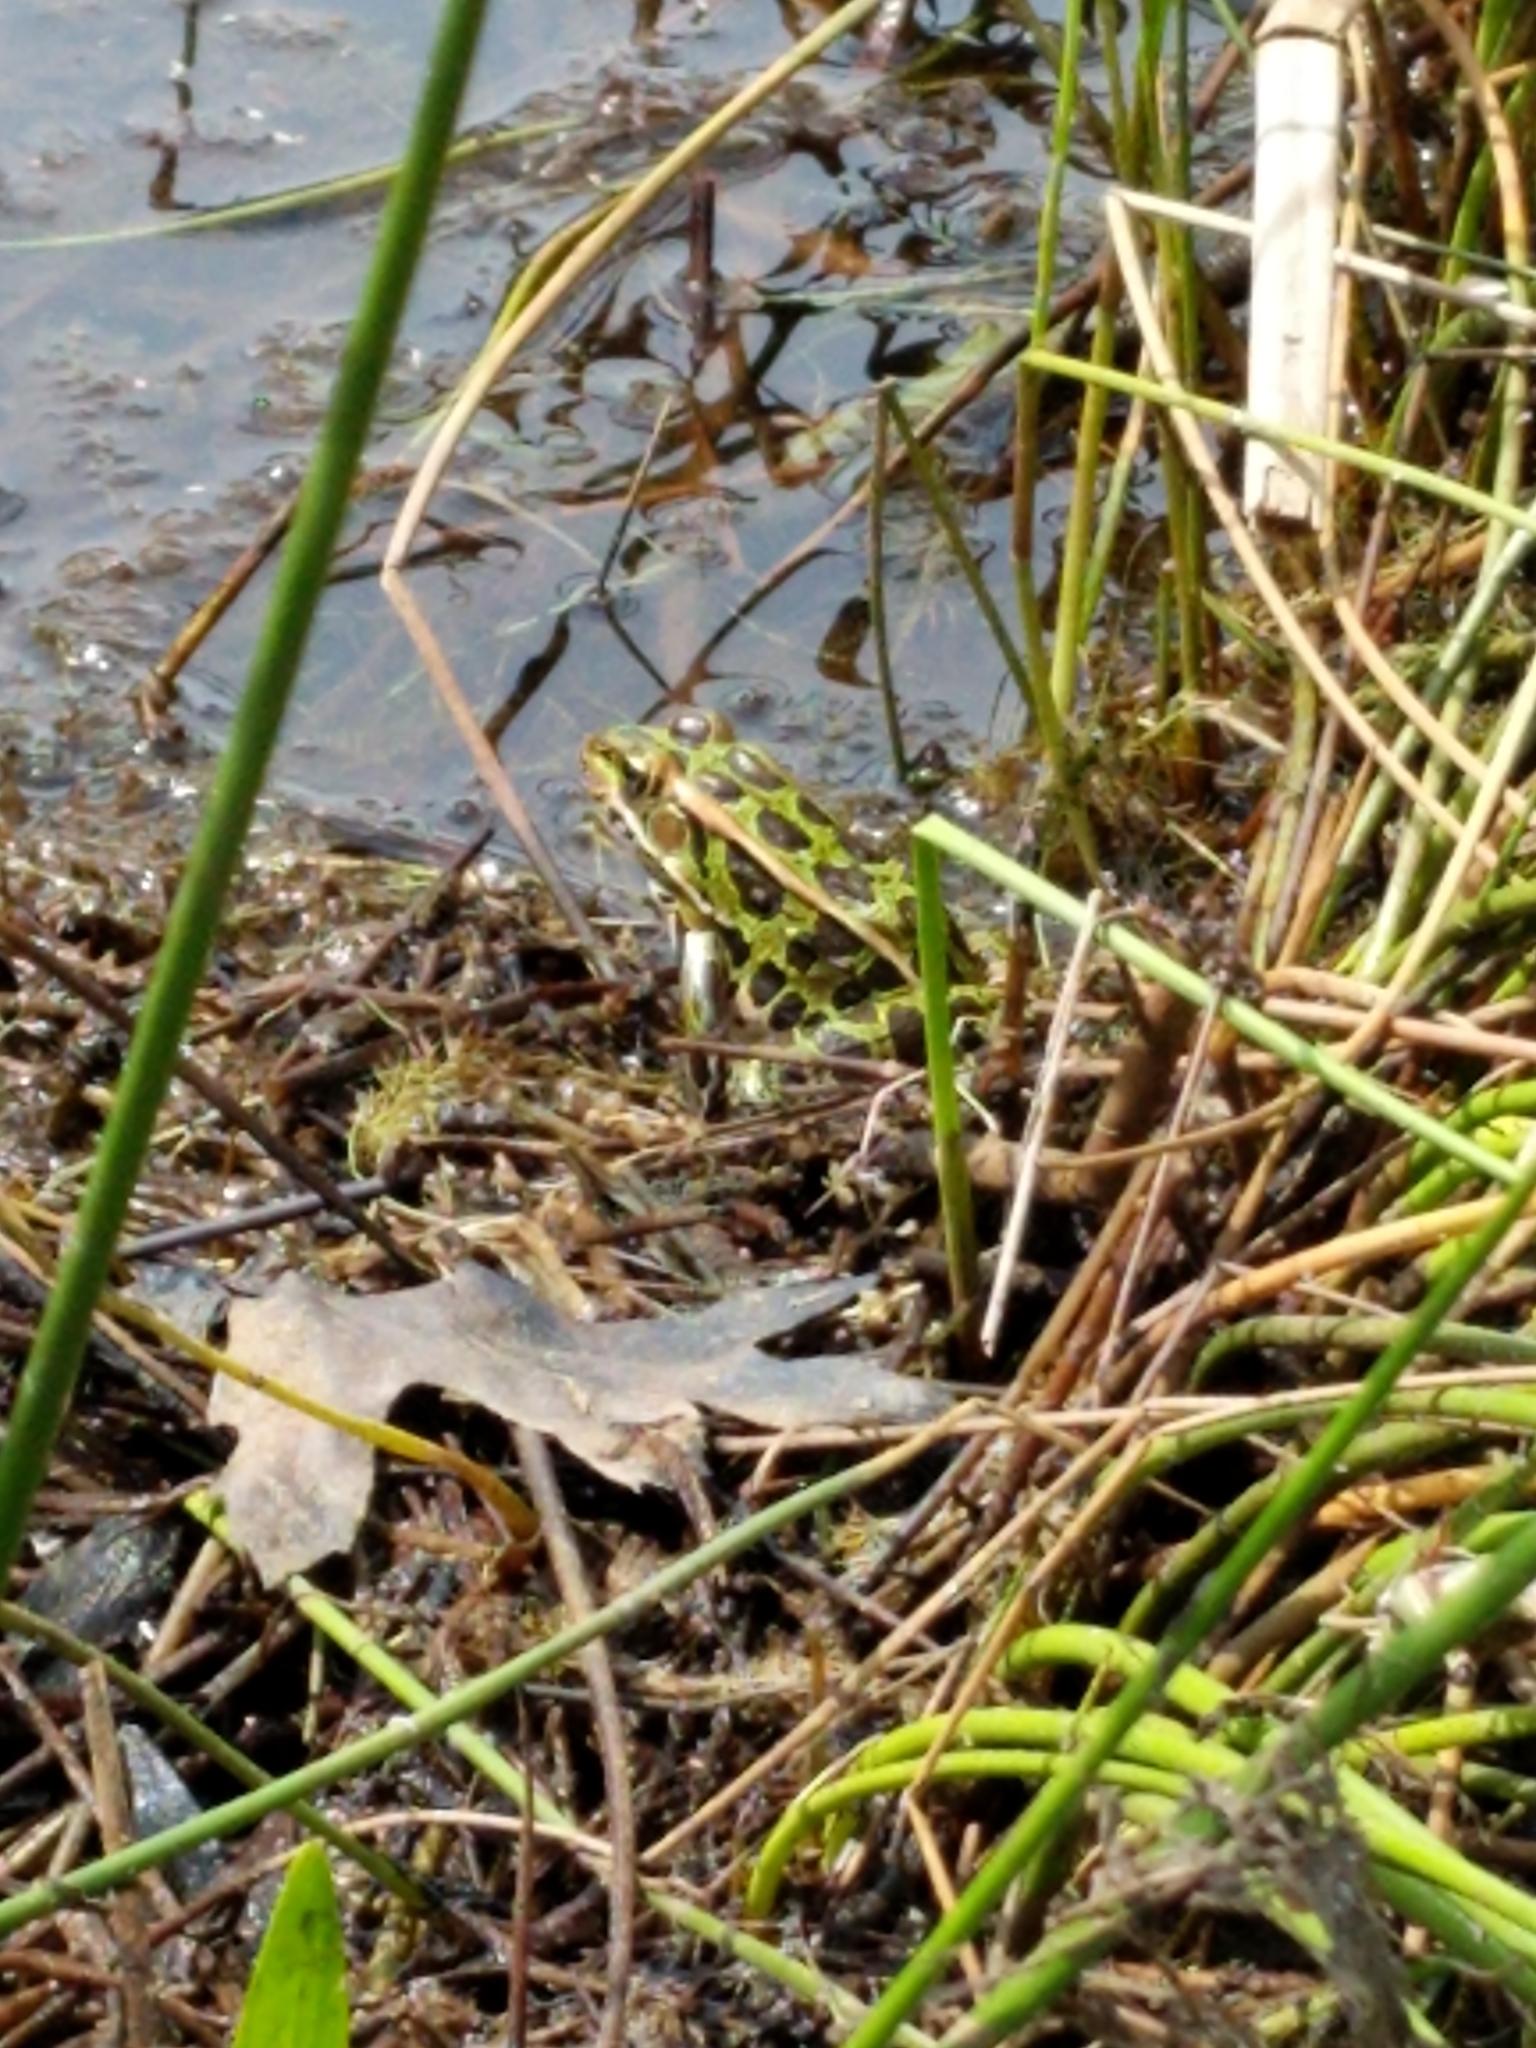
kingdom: Animalia
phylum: Chordata
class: Amphibia
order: Anura
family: Ranidae
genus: Lithobates
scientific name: Lithobates pipiens
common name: Northern leopard frog
